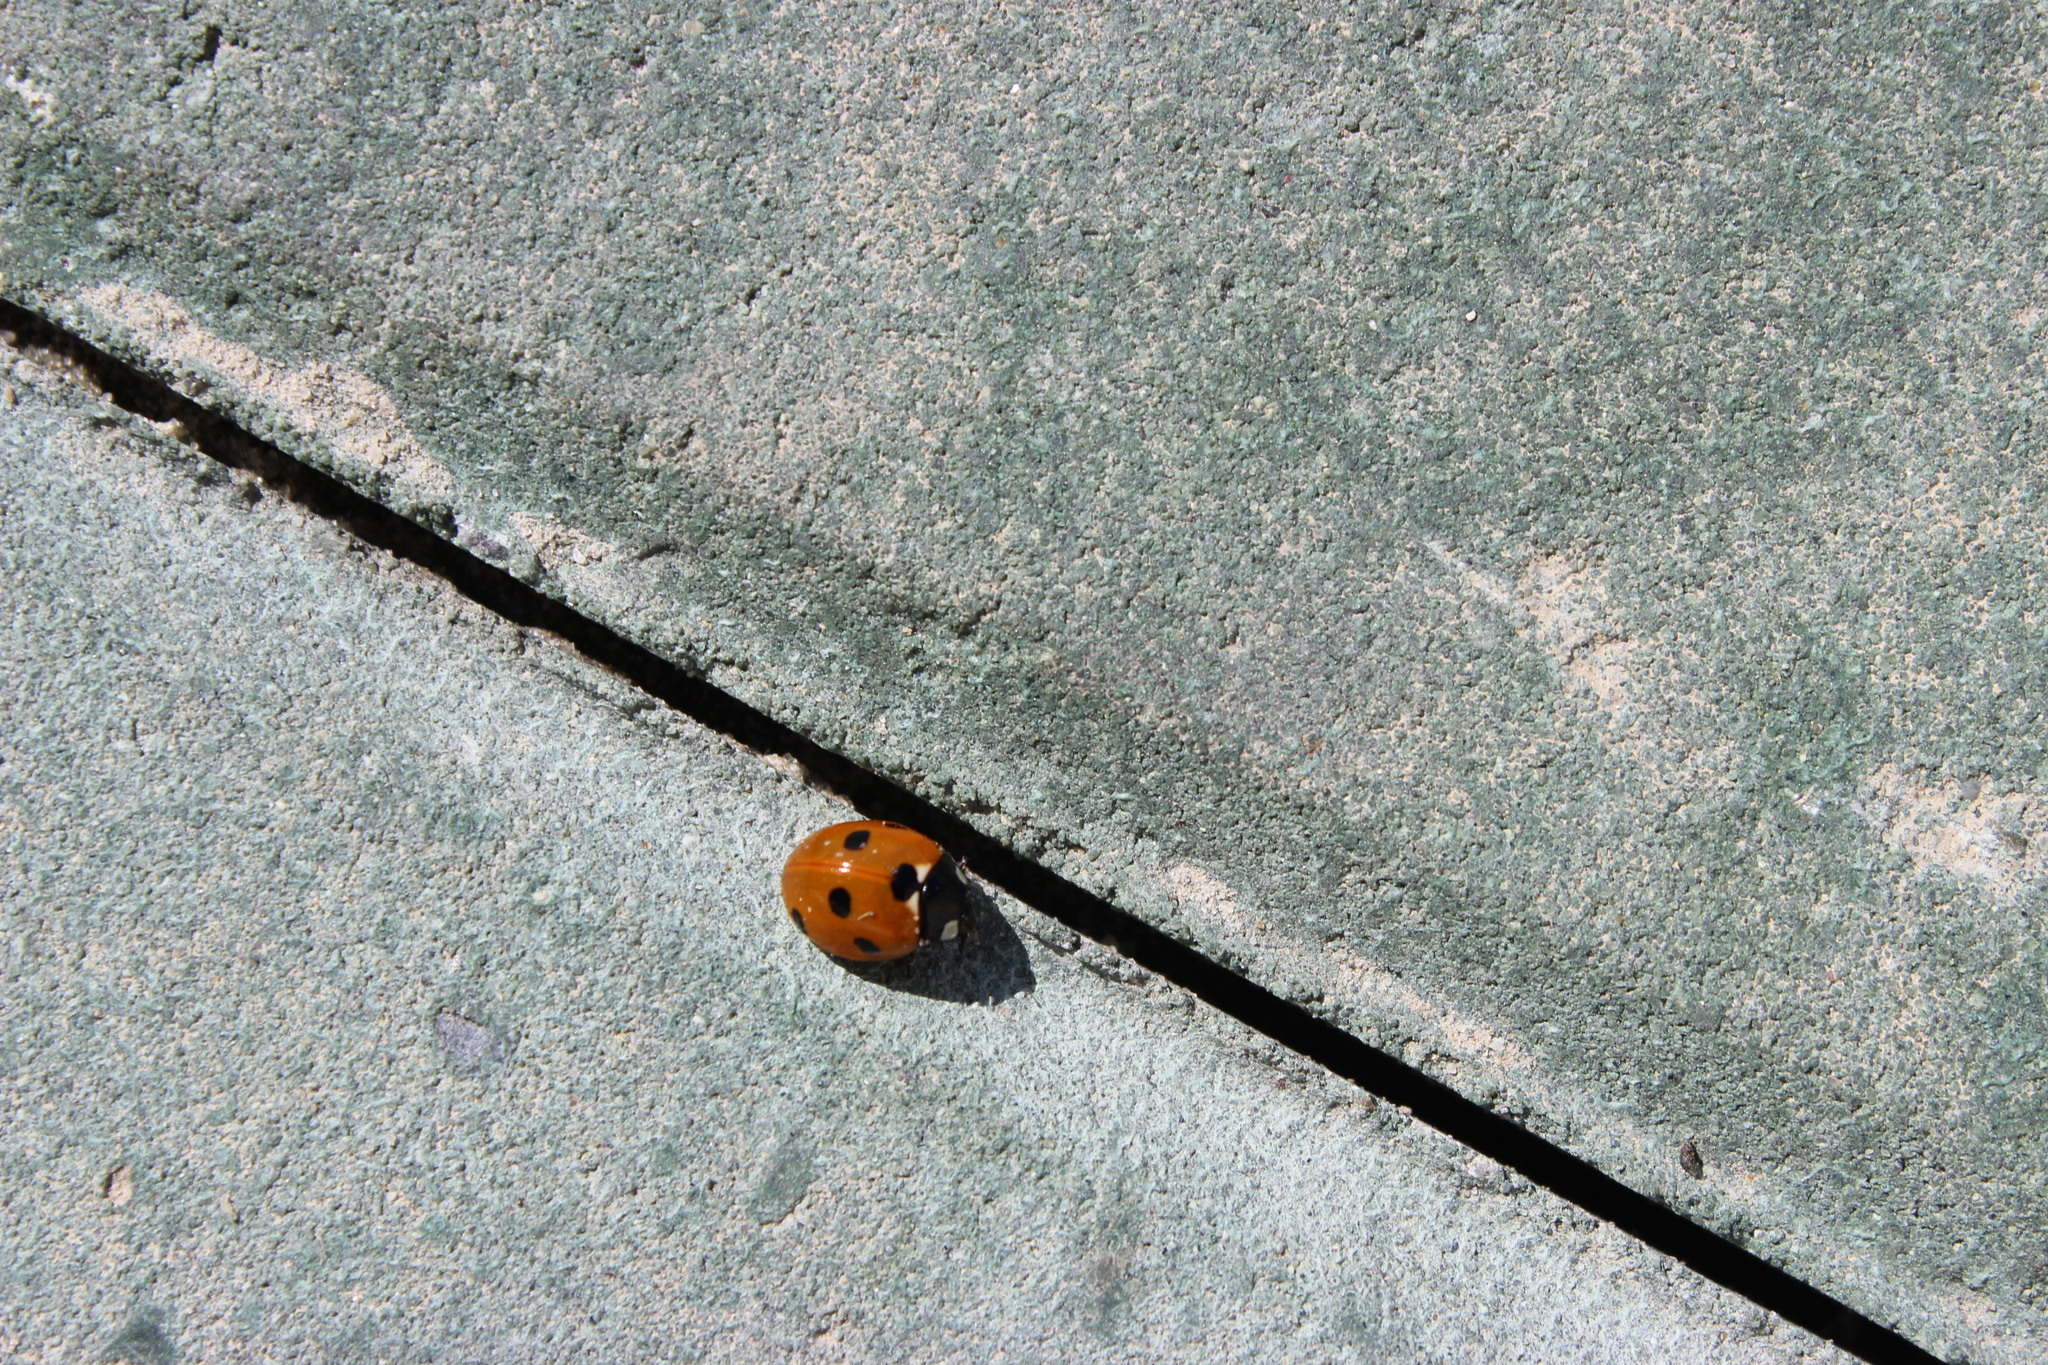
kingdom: Animalia
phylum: Arthropoda
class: Insecta
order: Coleoptera
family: Coccinellidae
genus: Coccinella
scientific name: Coccinella septempunctata
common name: Sevenspotted lady beetle
